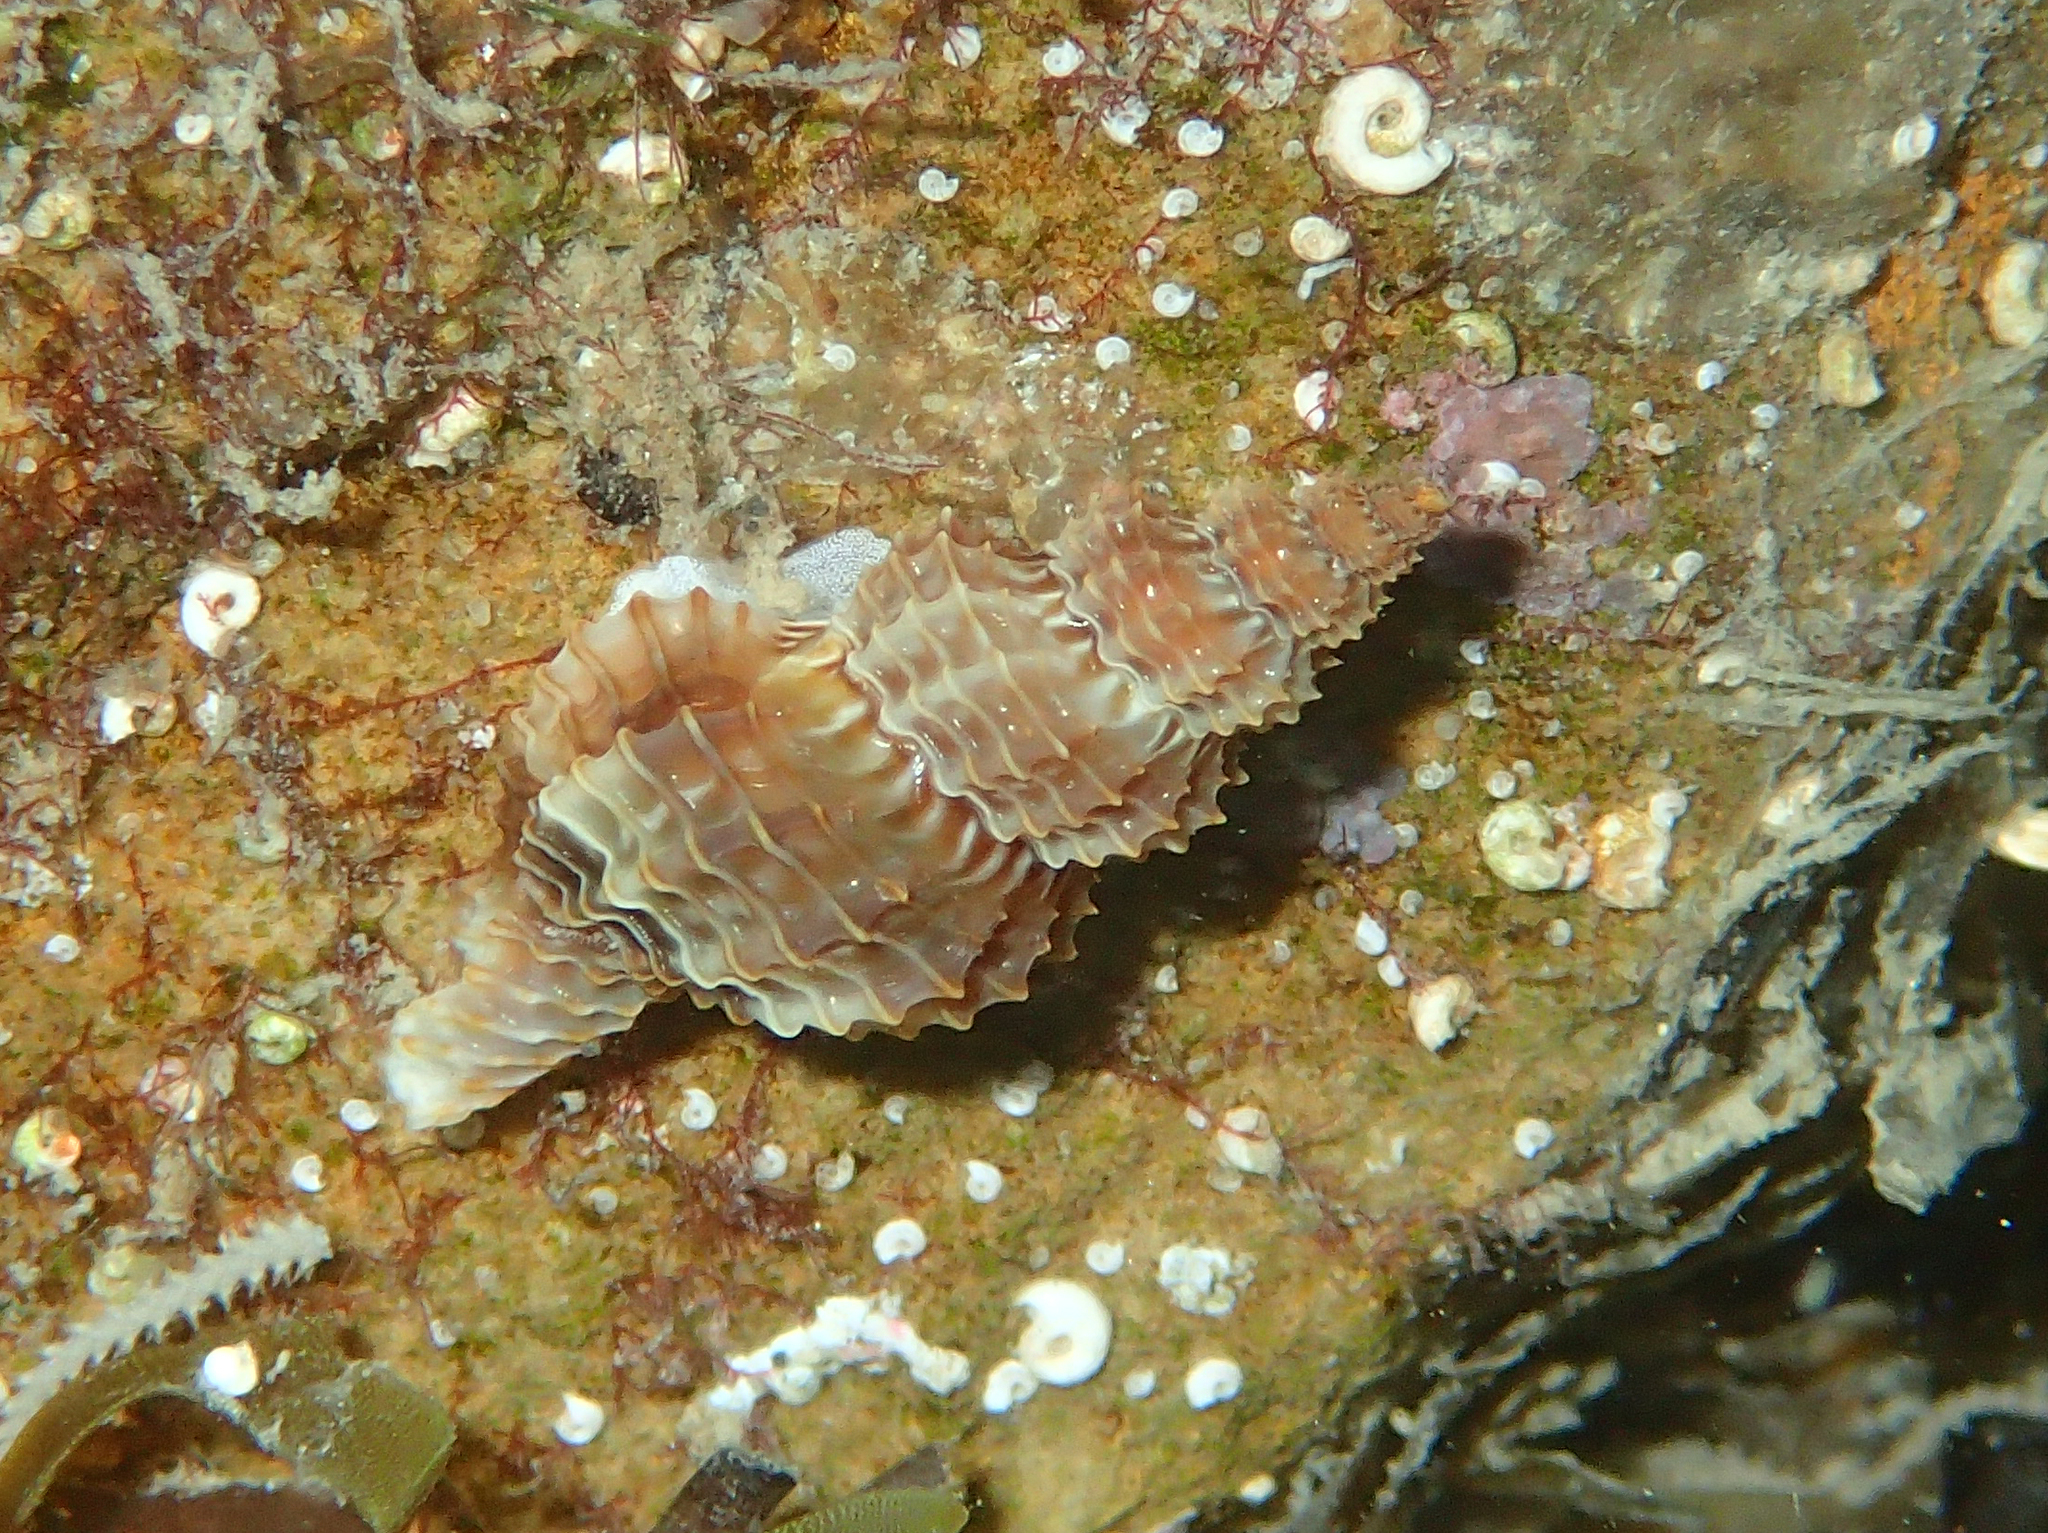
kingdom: Animalia
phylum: Mollusca
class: Gastropoda
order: Neogastropoda
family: Raphitomidae
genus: Raphitoma
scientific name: Raphitoma horrida
